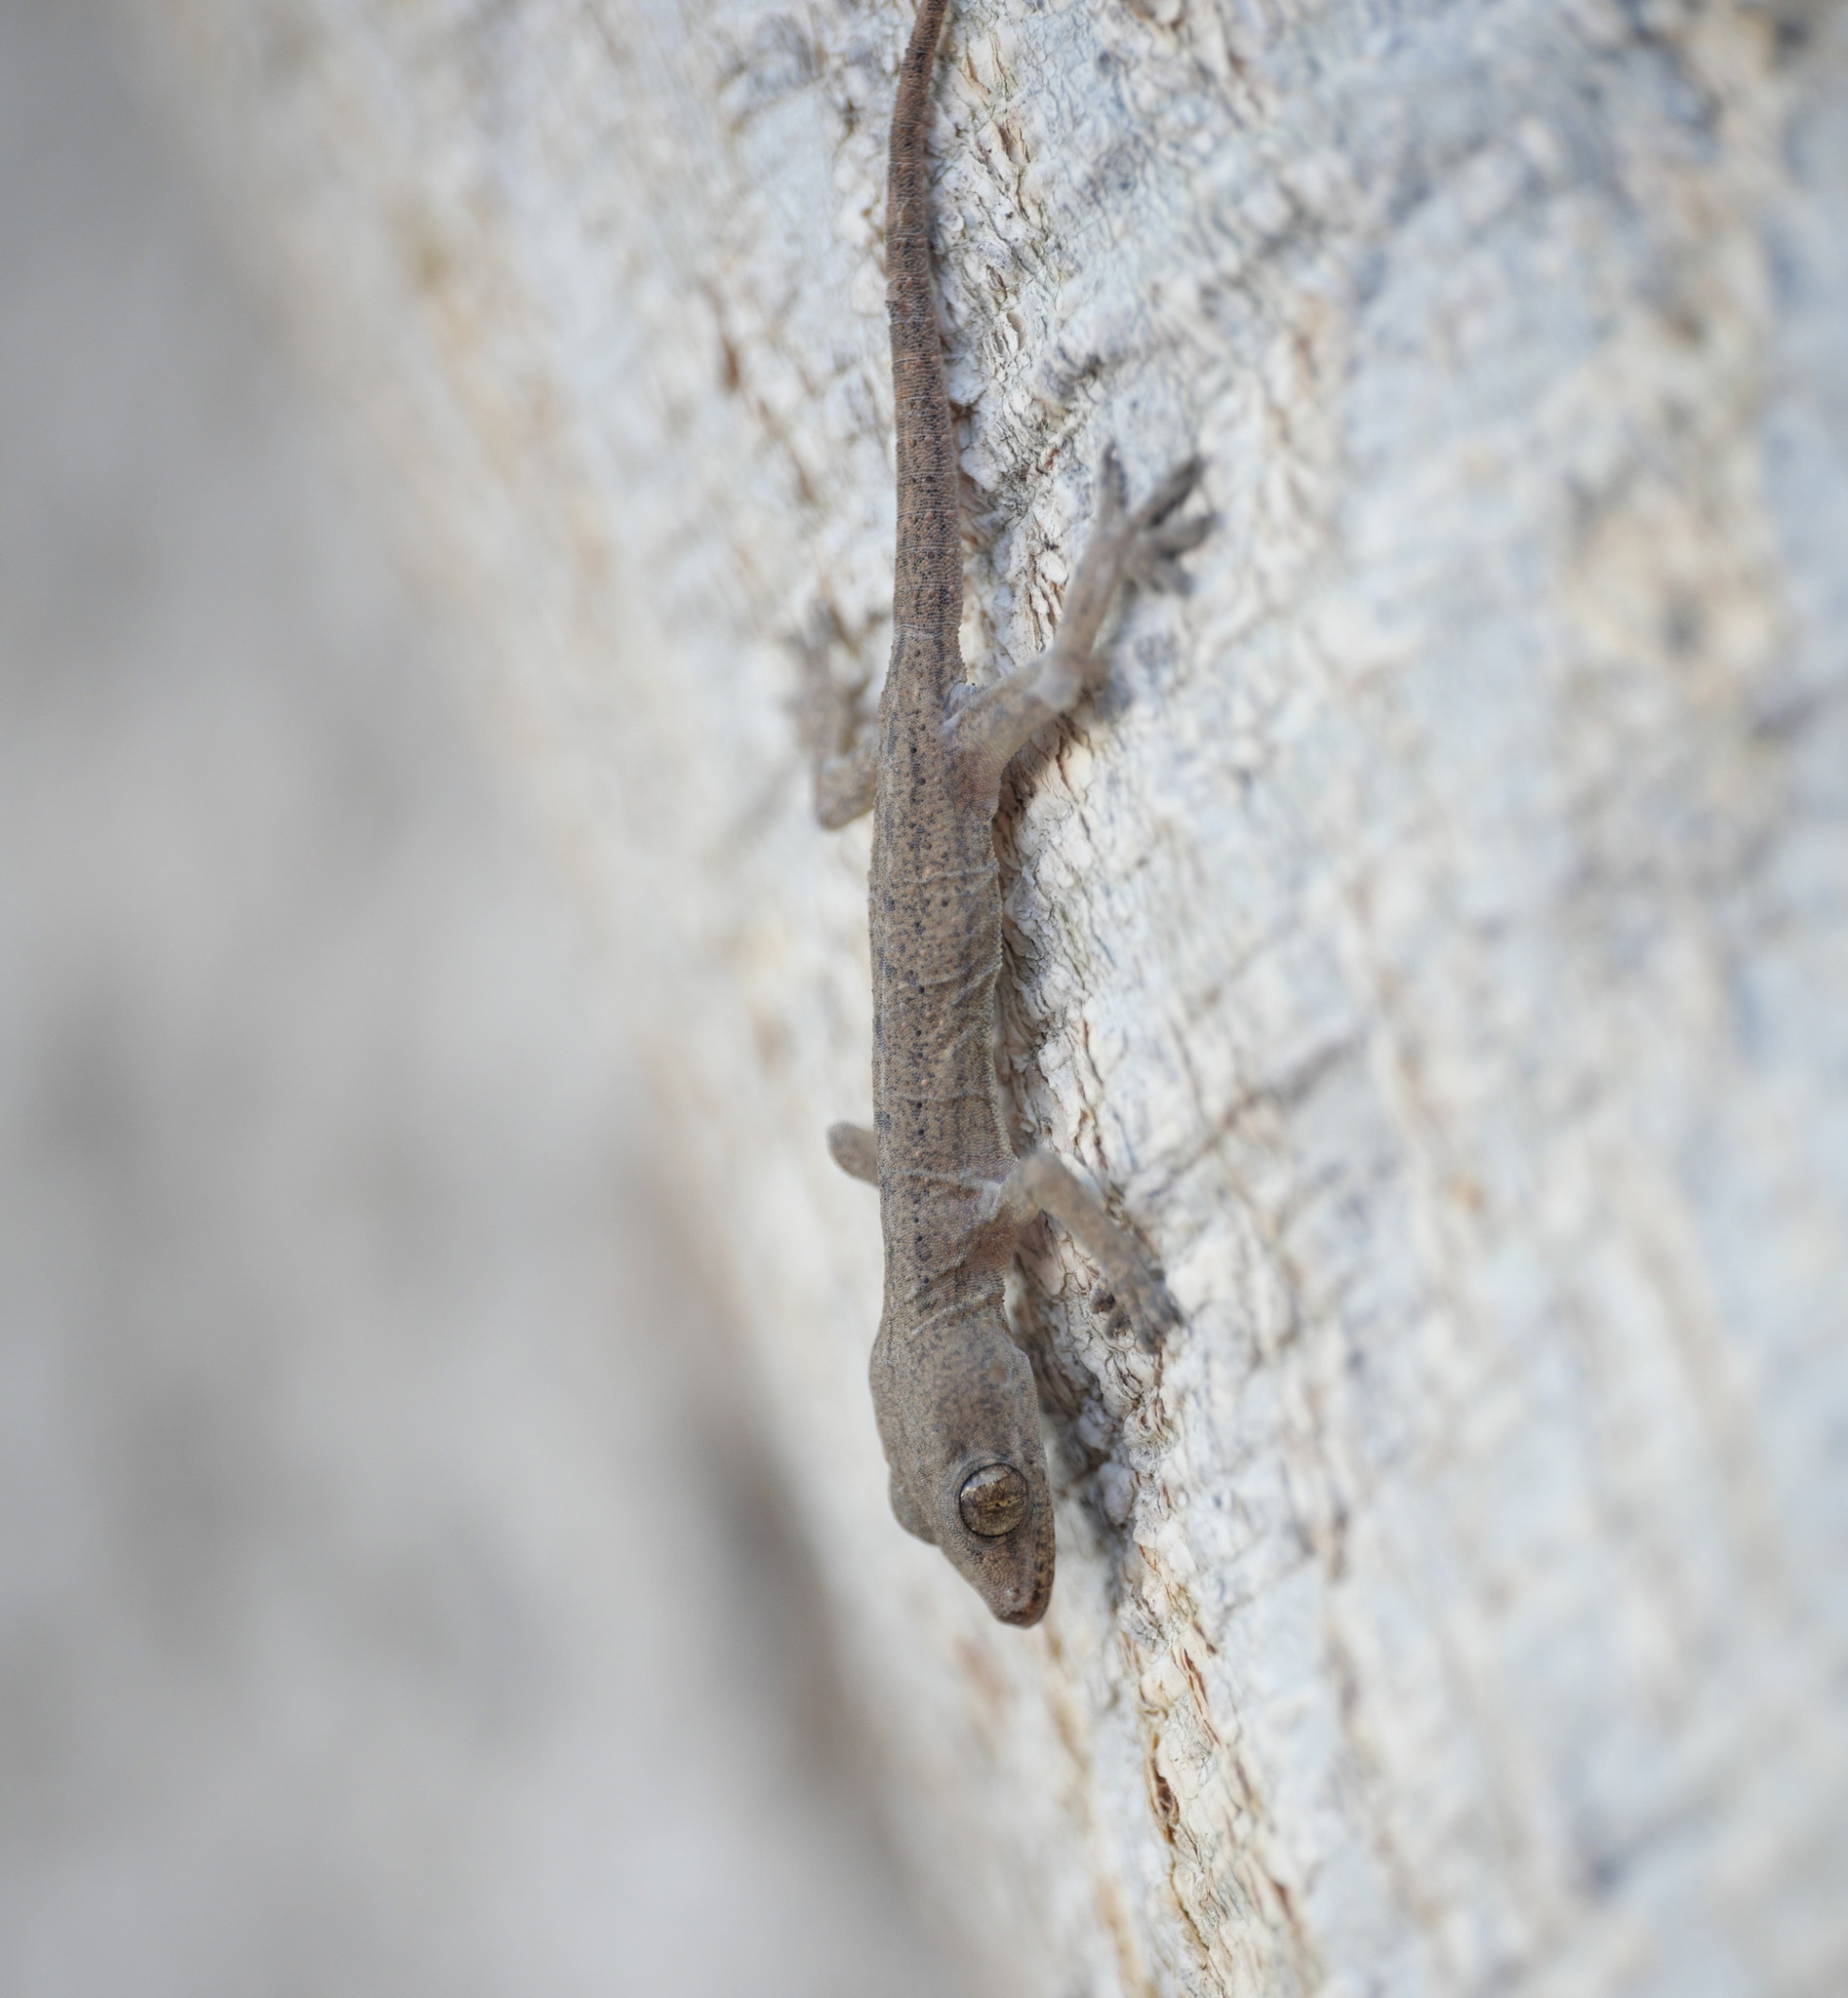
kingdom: Animalia
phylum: Chordata
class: Squamata
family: Gekkonidae
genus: Hemidactylus
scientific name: Hemidactylus frenatus
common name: Common house gecko
